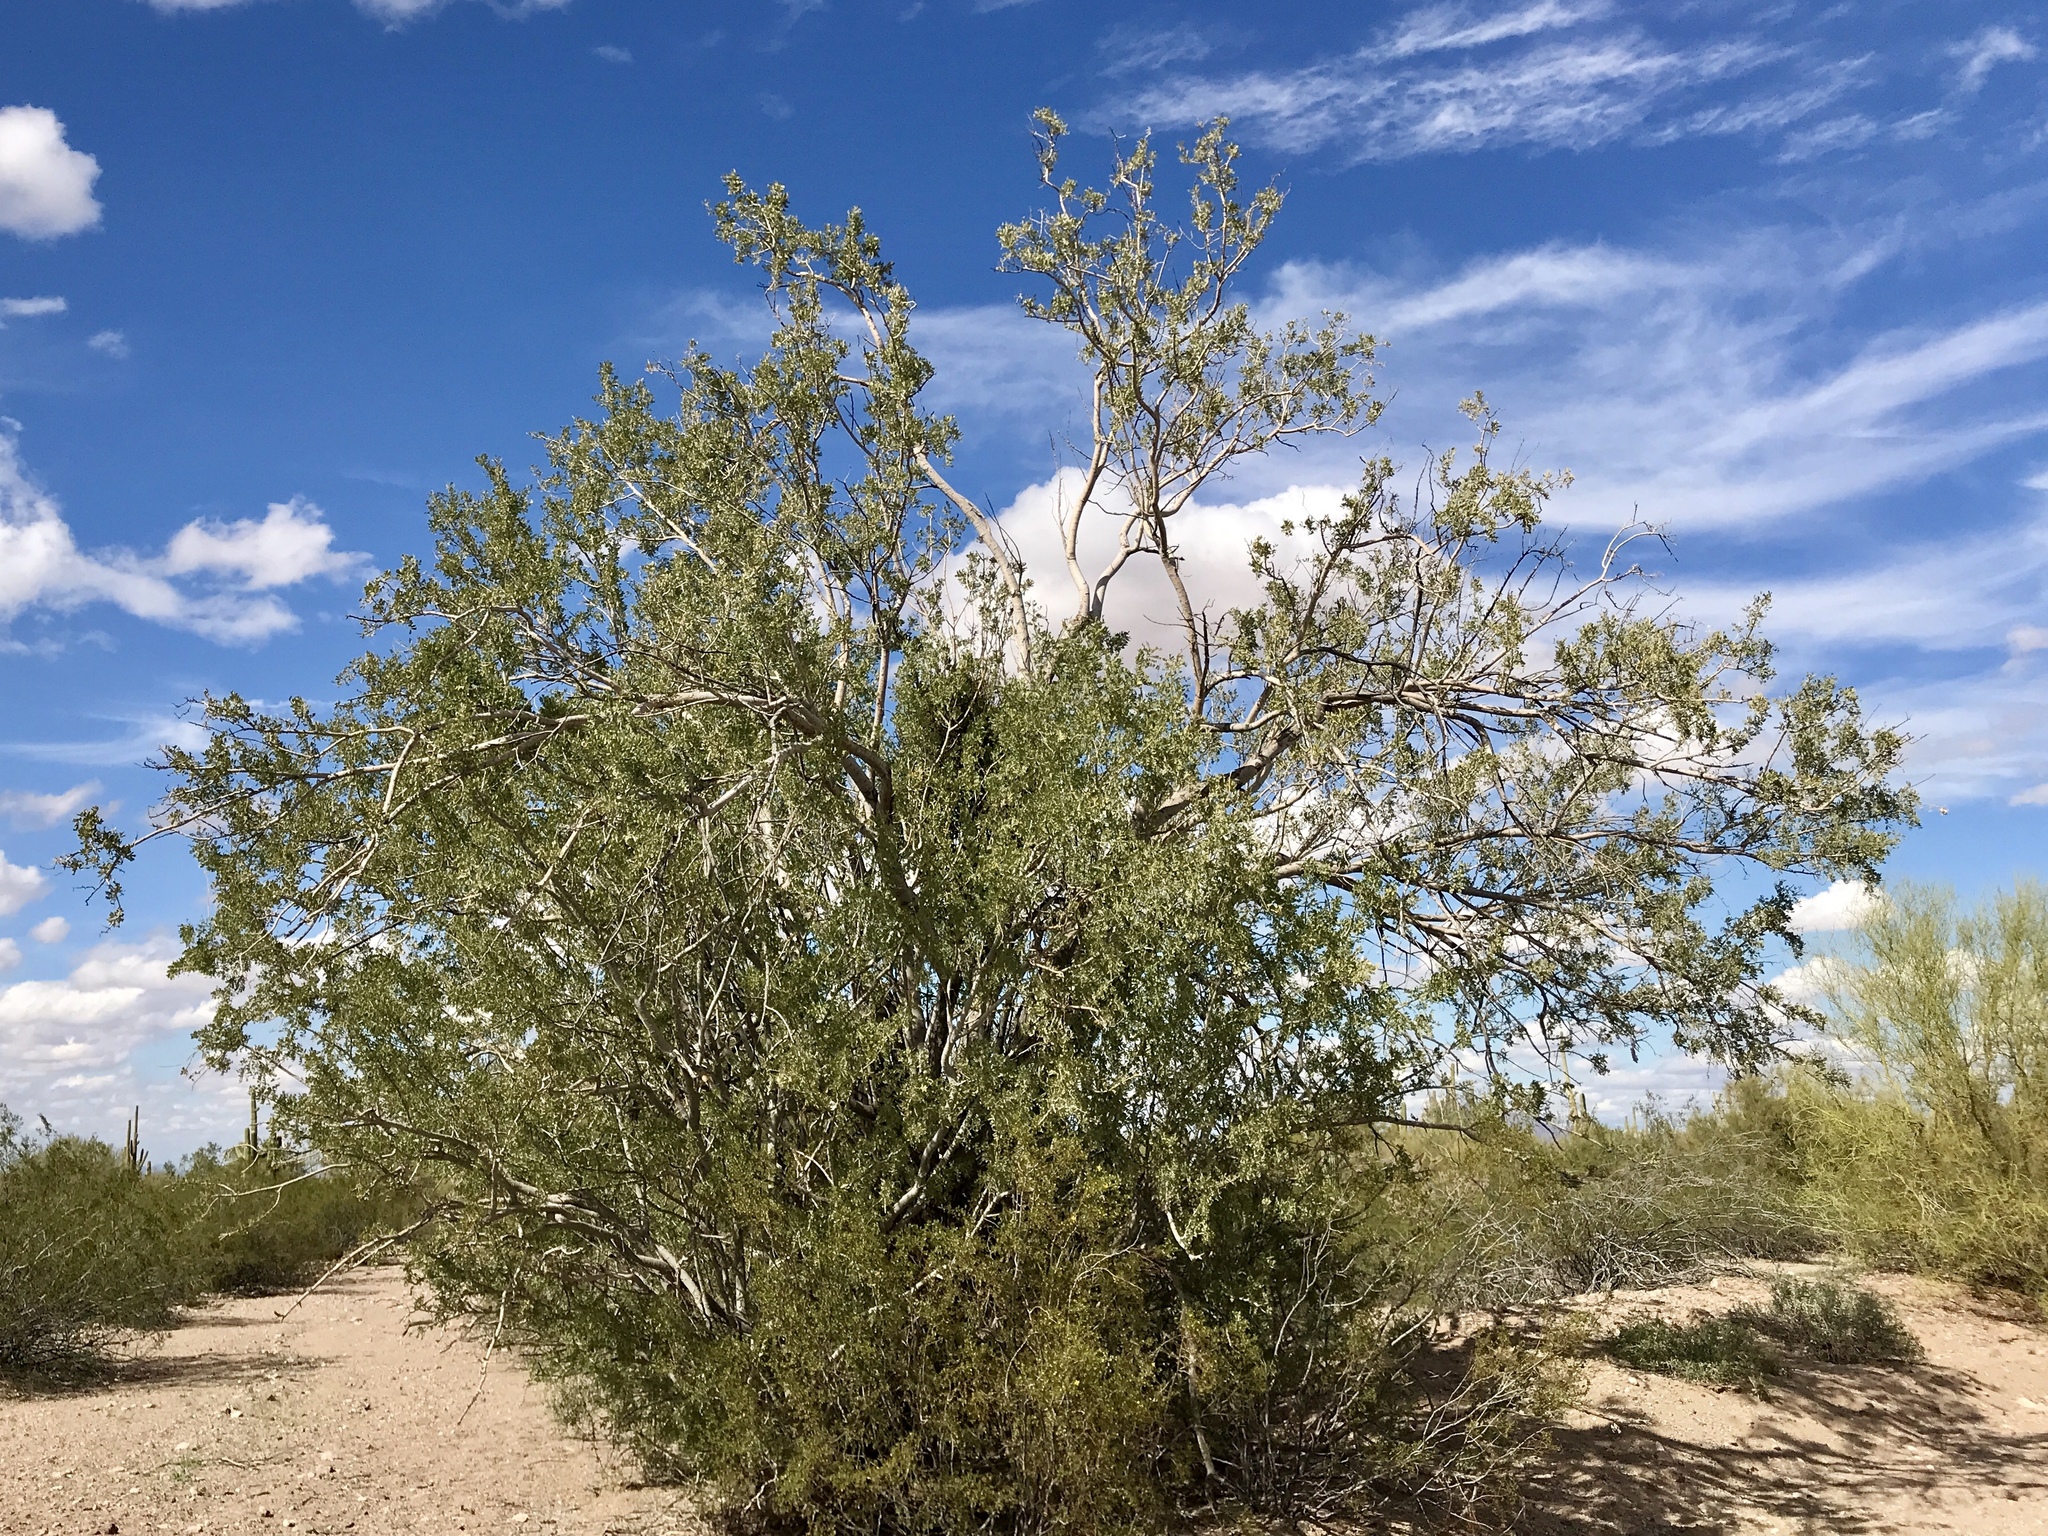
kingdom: Plantae
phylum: Tracheophyta
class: Magnoliopsida
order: Fabales
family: Fabaceae
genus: Olneya
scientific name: Olneya tesota
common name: Desert ironwood
